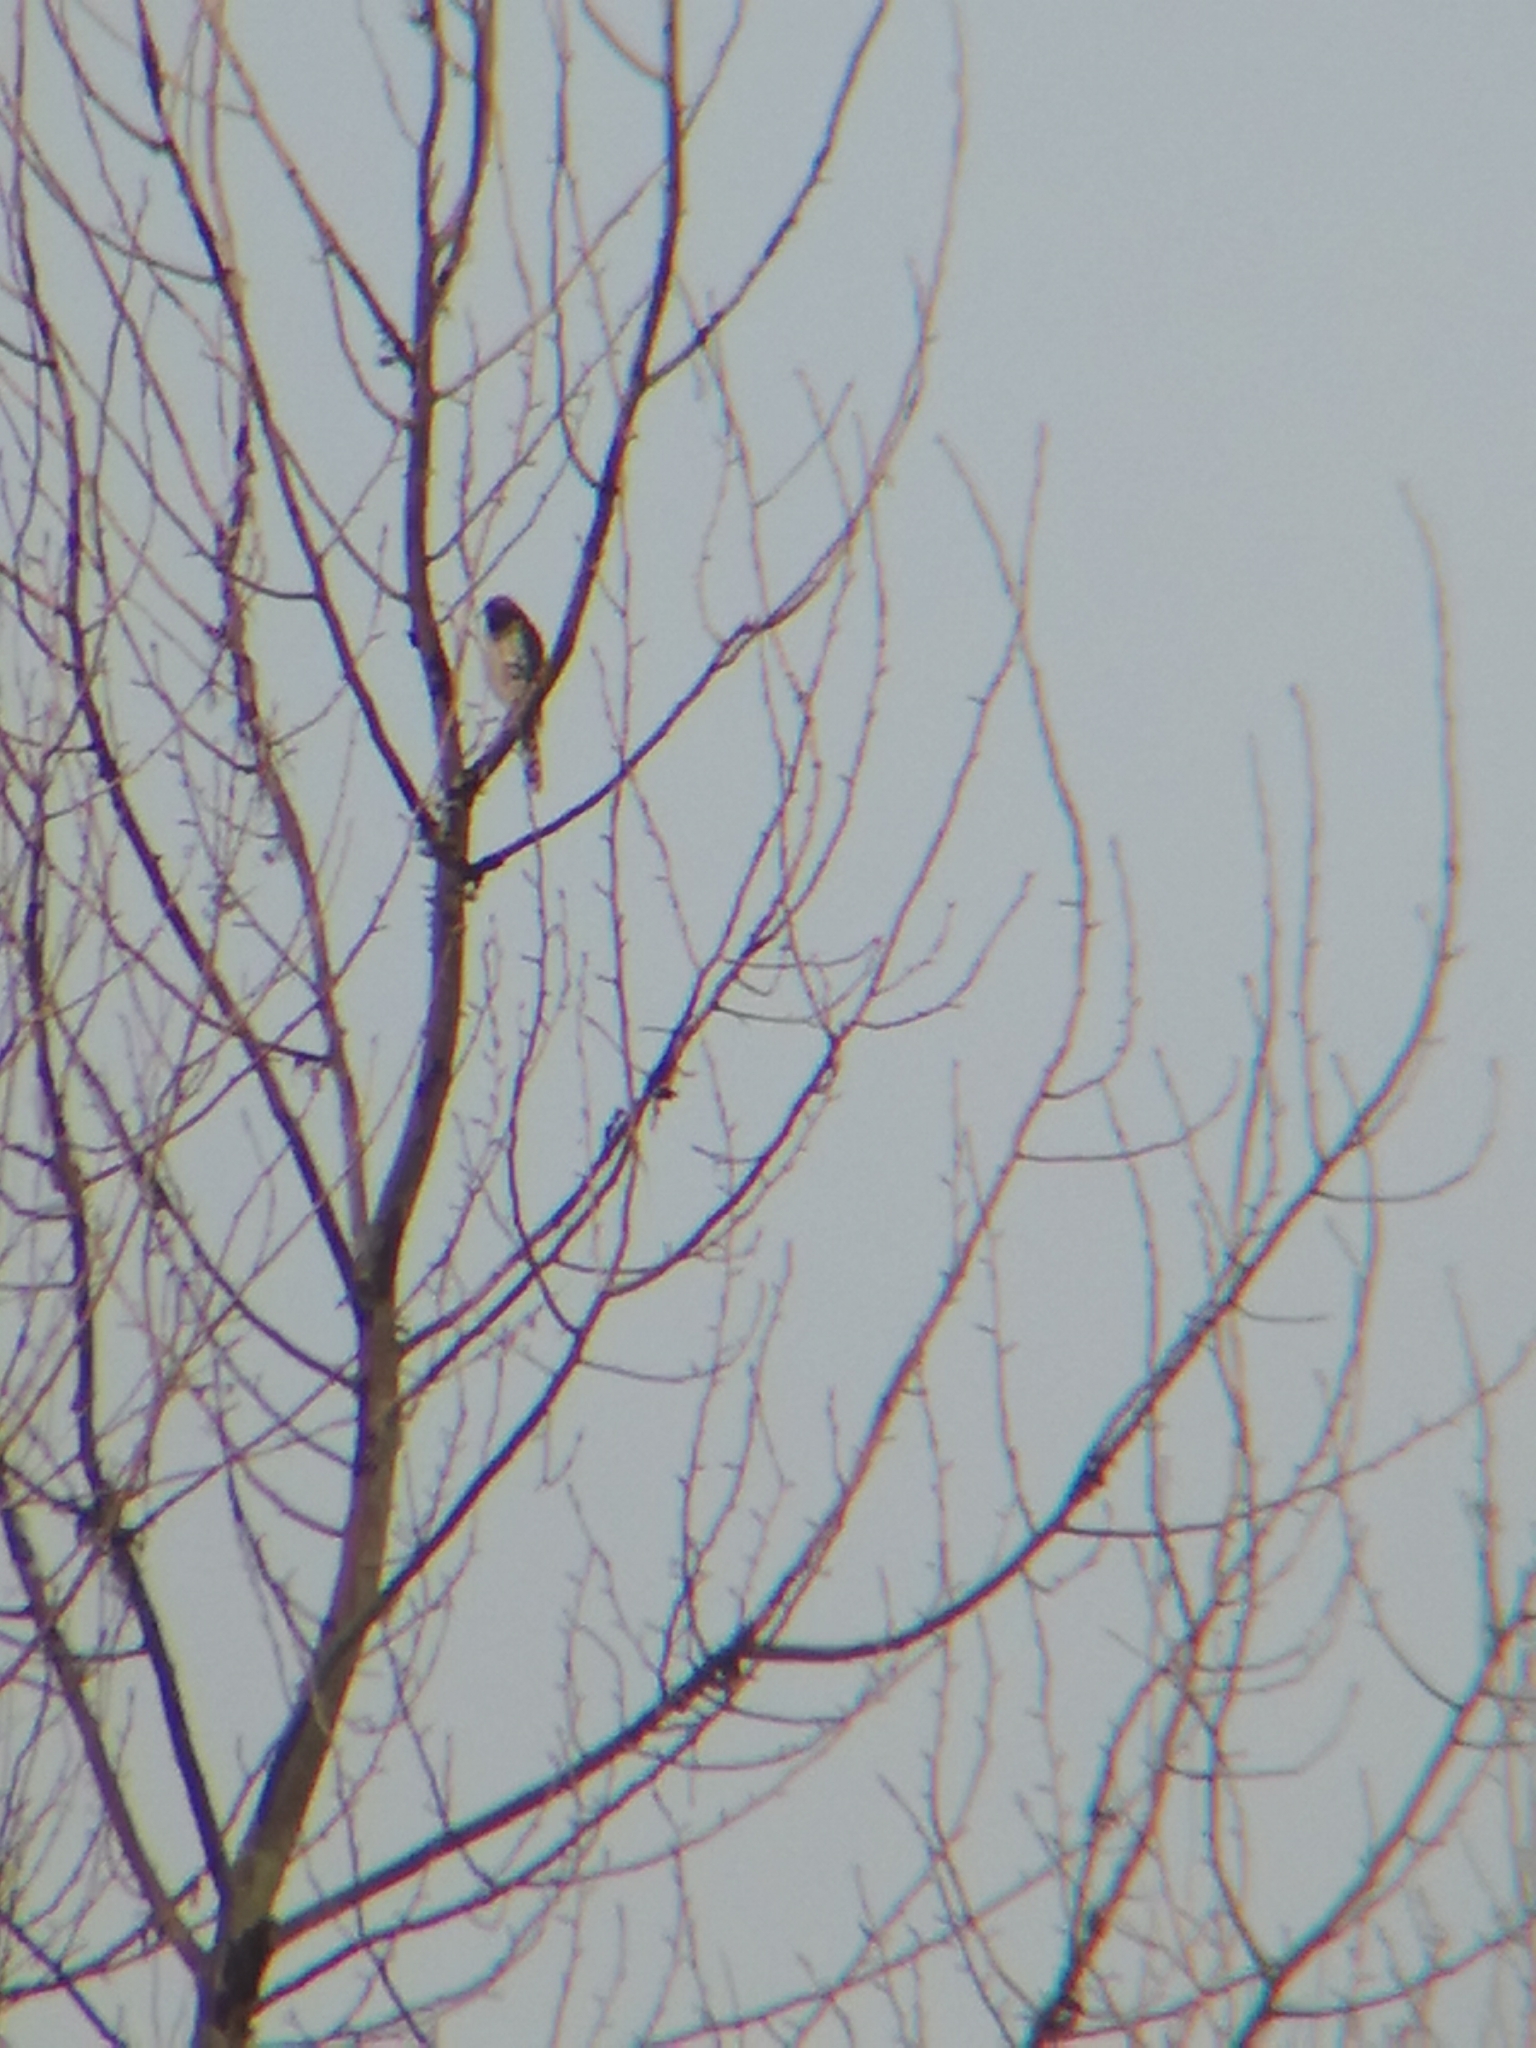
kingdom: Animalia
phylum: Chordata
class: Aves
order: Accipitriformes
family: Accipitridae
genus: Accipiter
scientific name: Accipiter
